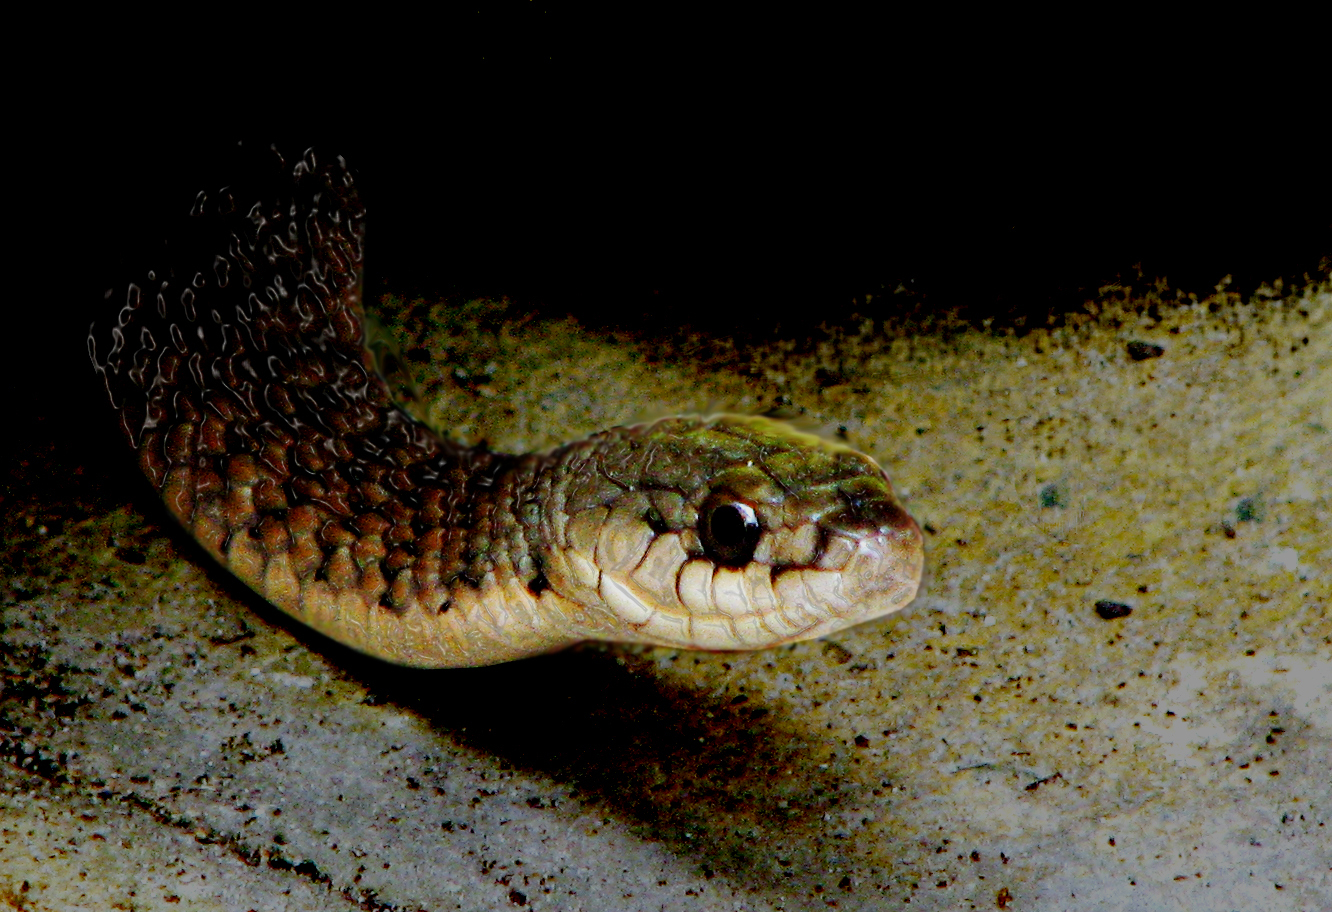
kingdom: Animalia
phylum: Chordata
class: Squamata
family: Colubridae
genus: Tropidonophis
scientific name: Tropidonophis mairii
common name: Common keelback
